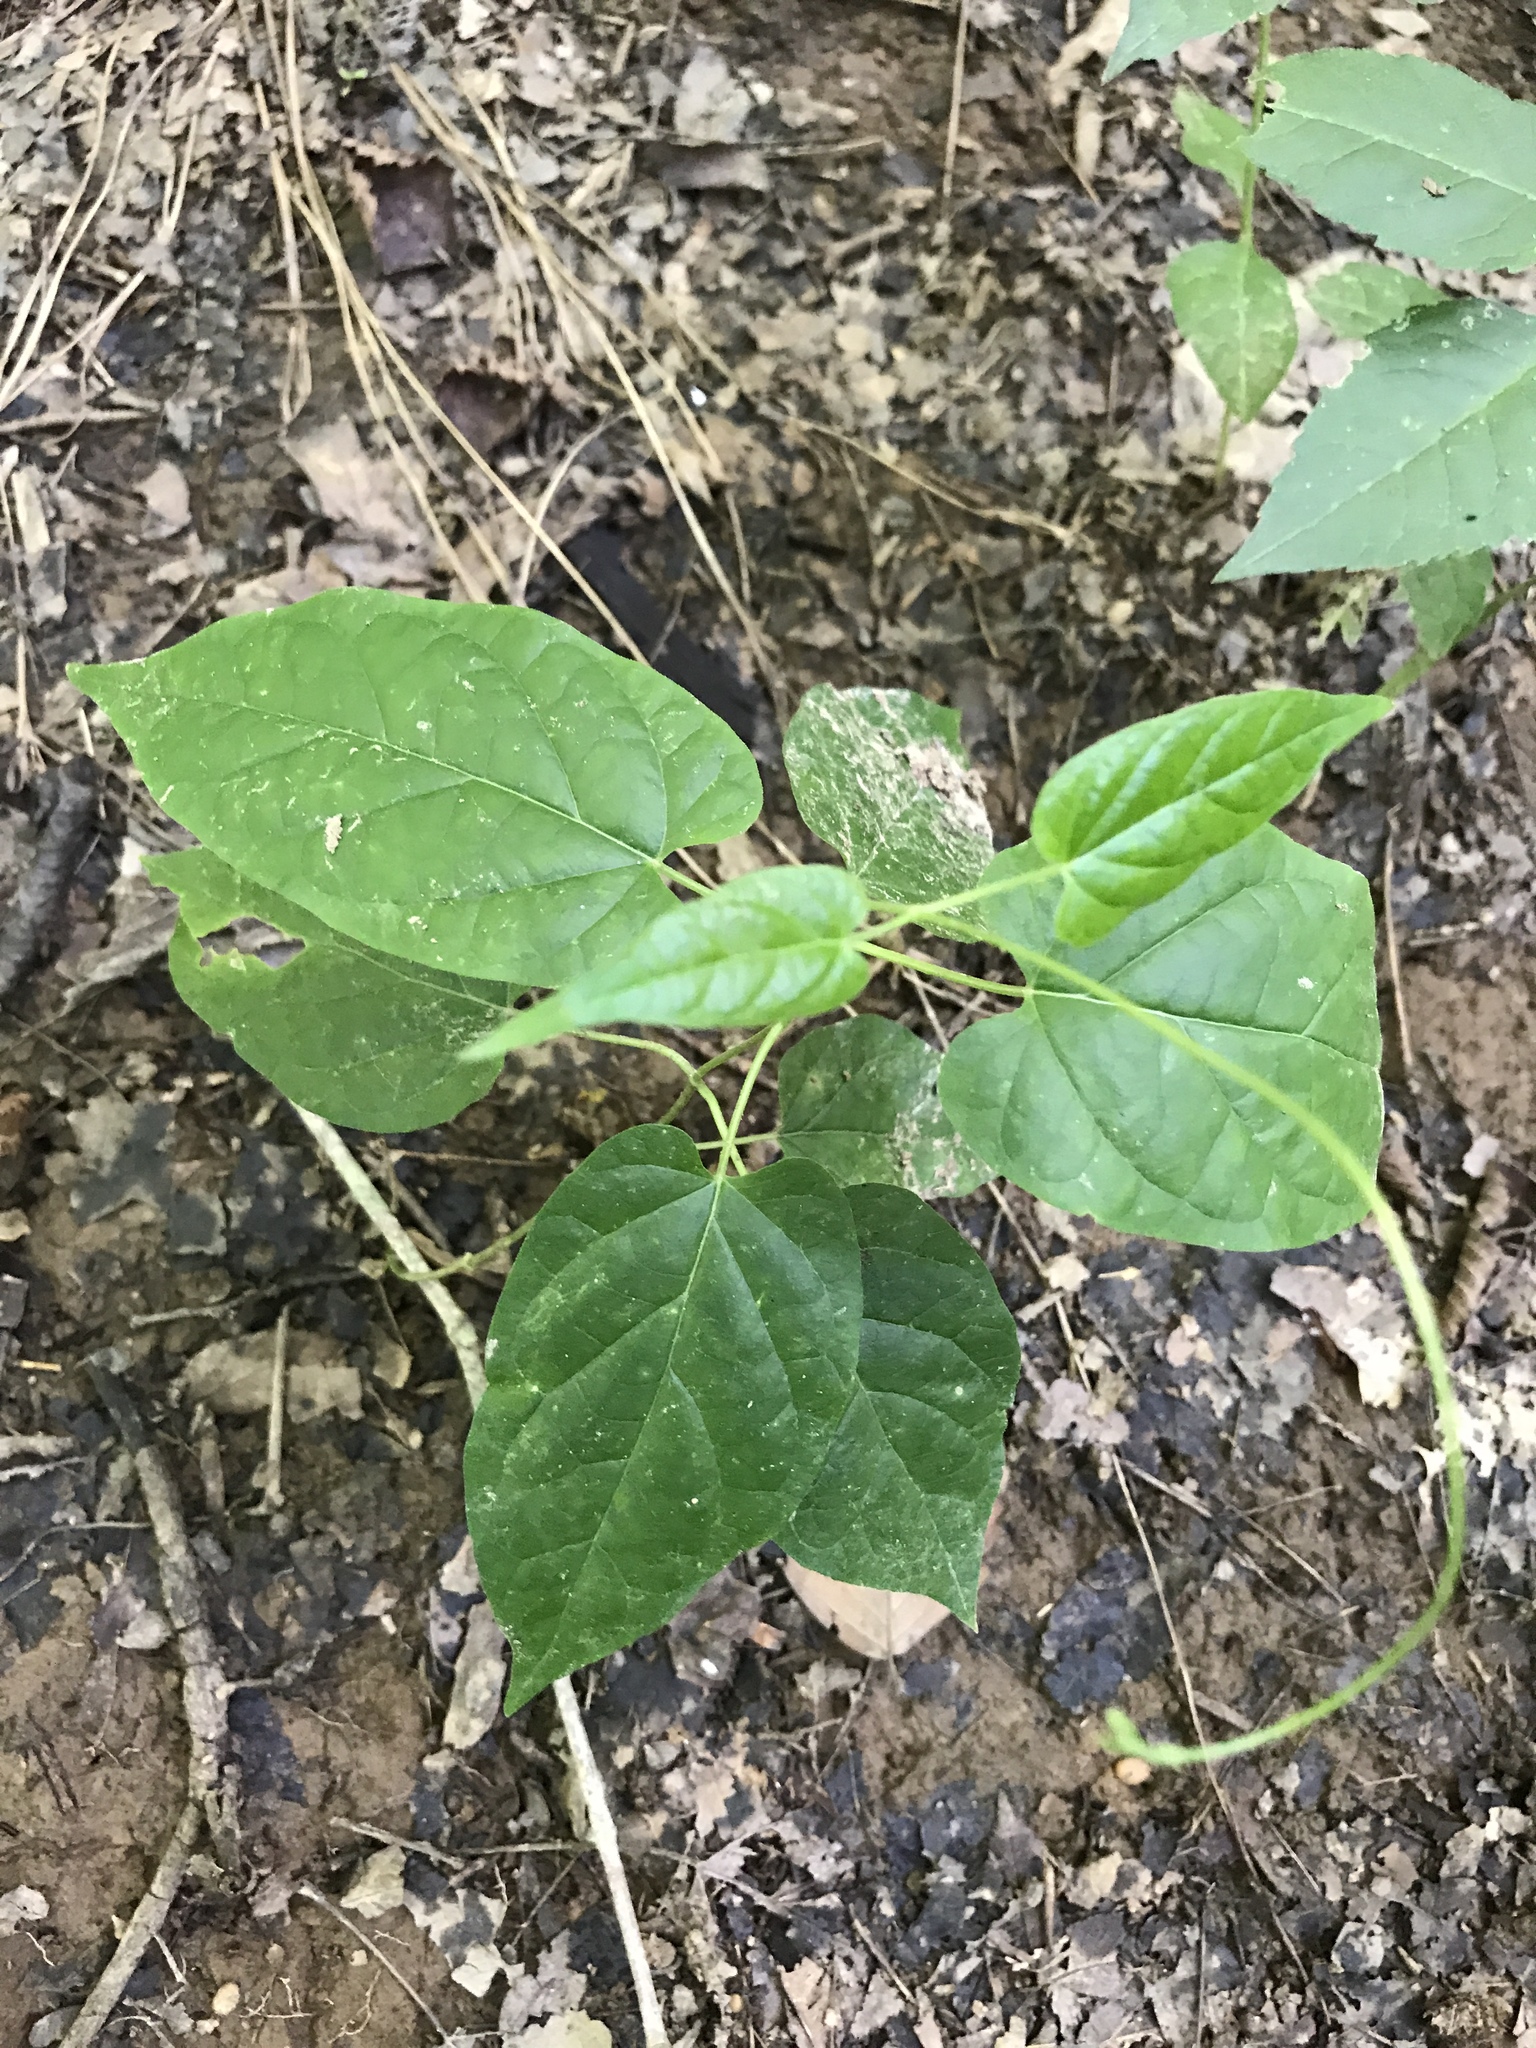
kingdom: Plantae
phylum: Tracheophyta
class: Magnoliopsida
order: Gentianales
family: Apocynaceae
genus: Gonolobus
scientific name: Gonolobus suberosus
